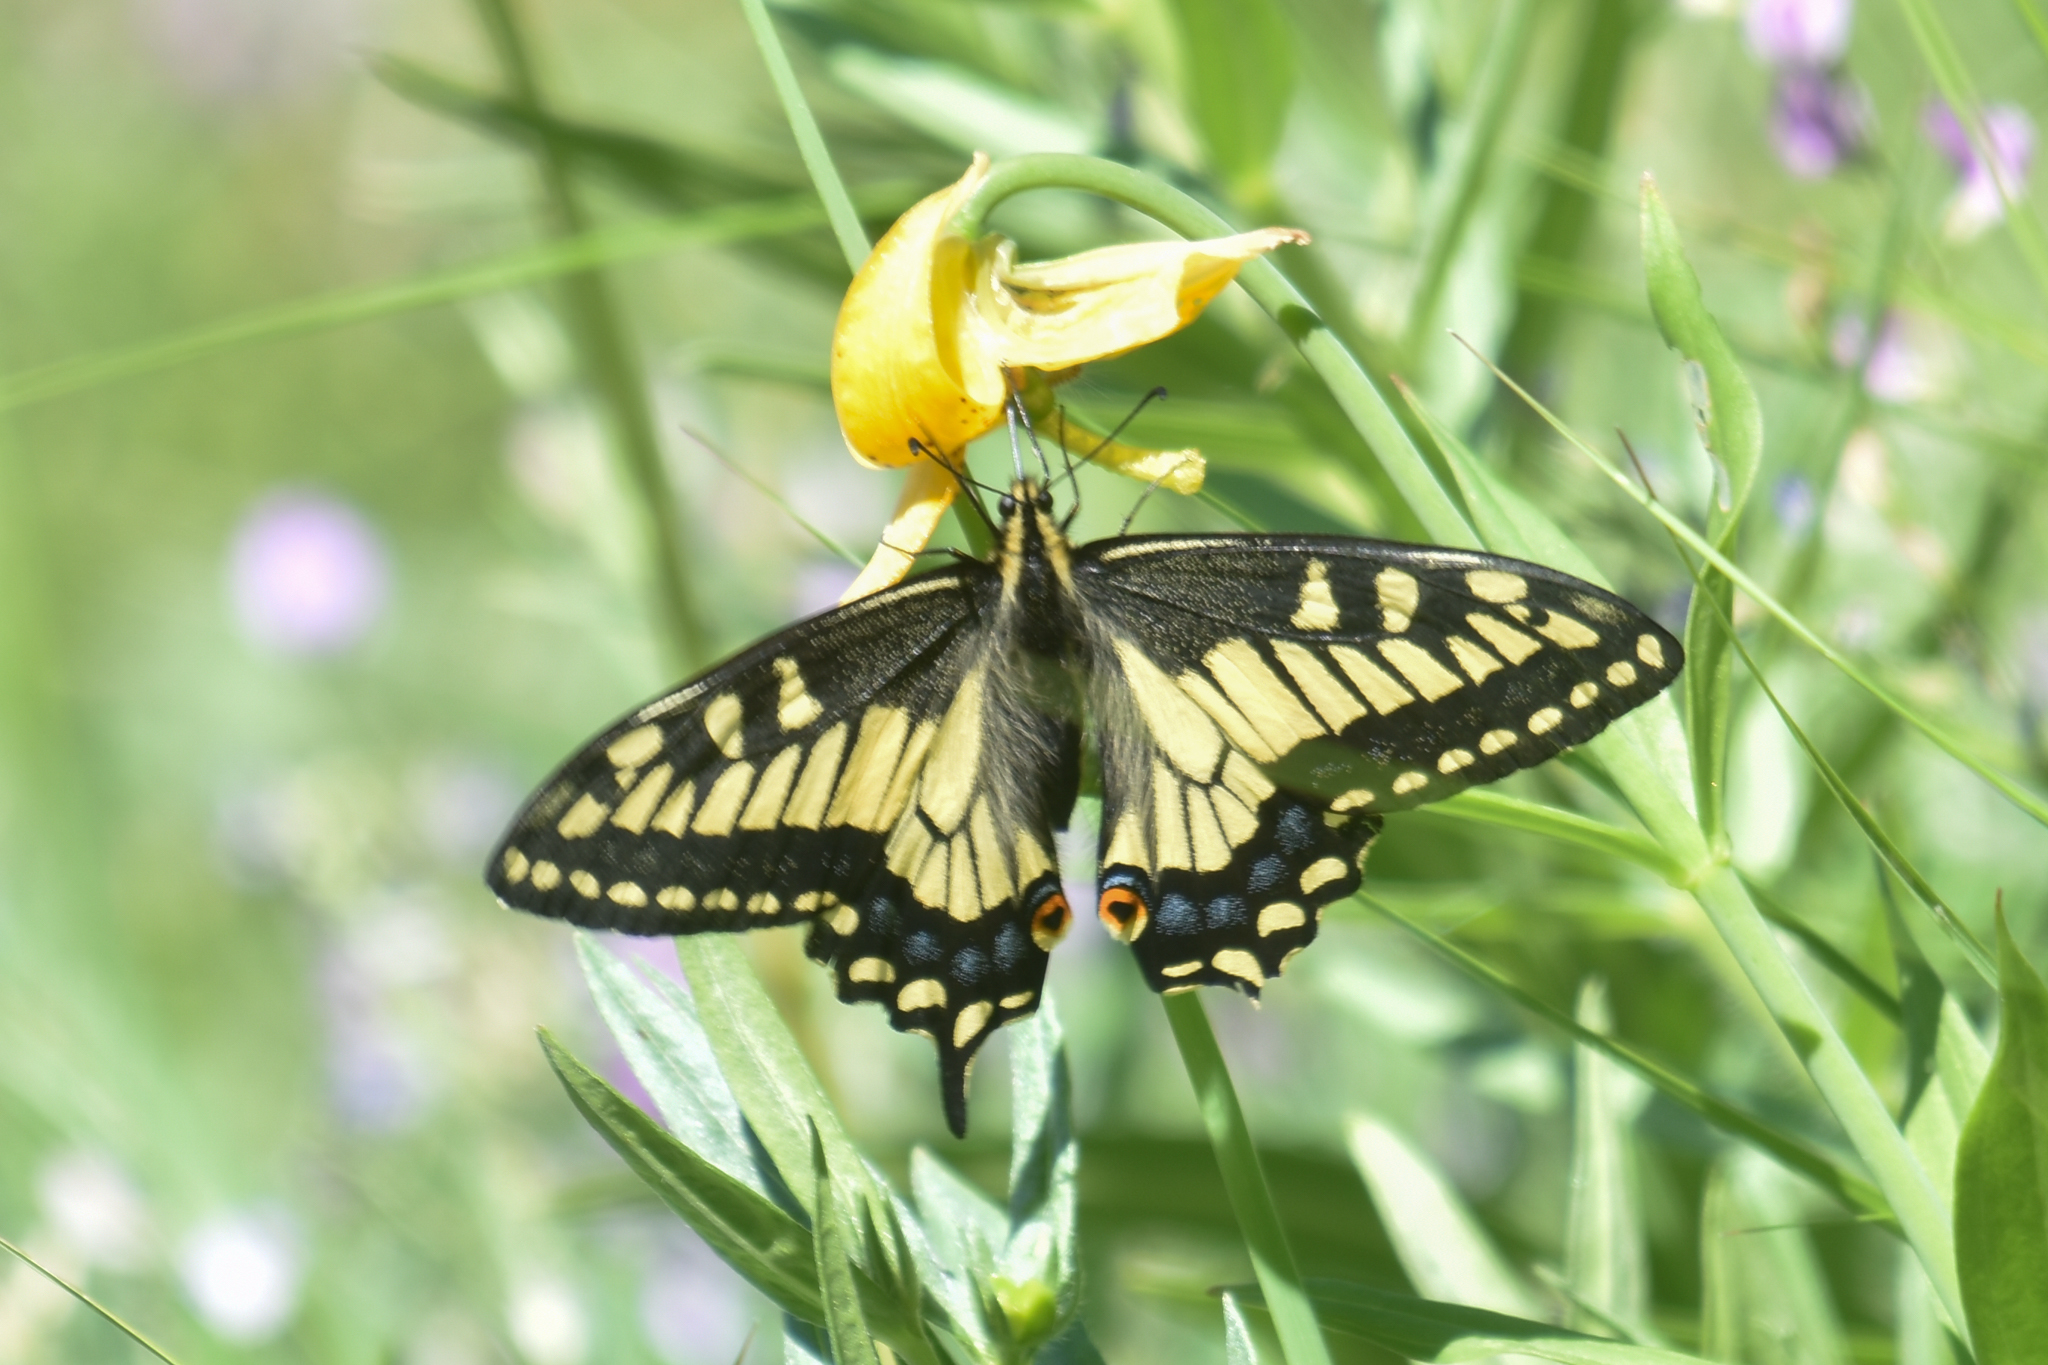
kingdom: Animalia
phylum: Arthropoda
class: Insecta
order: Lepidoptera
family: Papilionidae
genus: Papilio
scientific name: Papilio zelicaon
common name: Anise swallowtail
